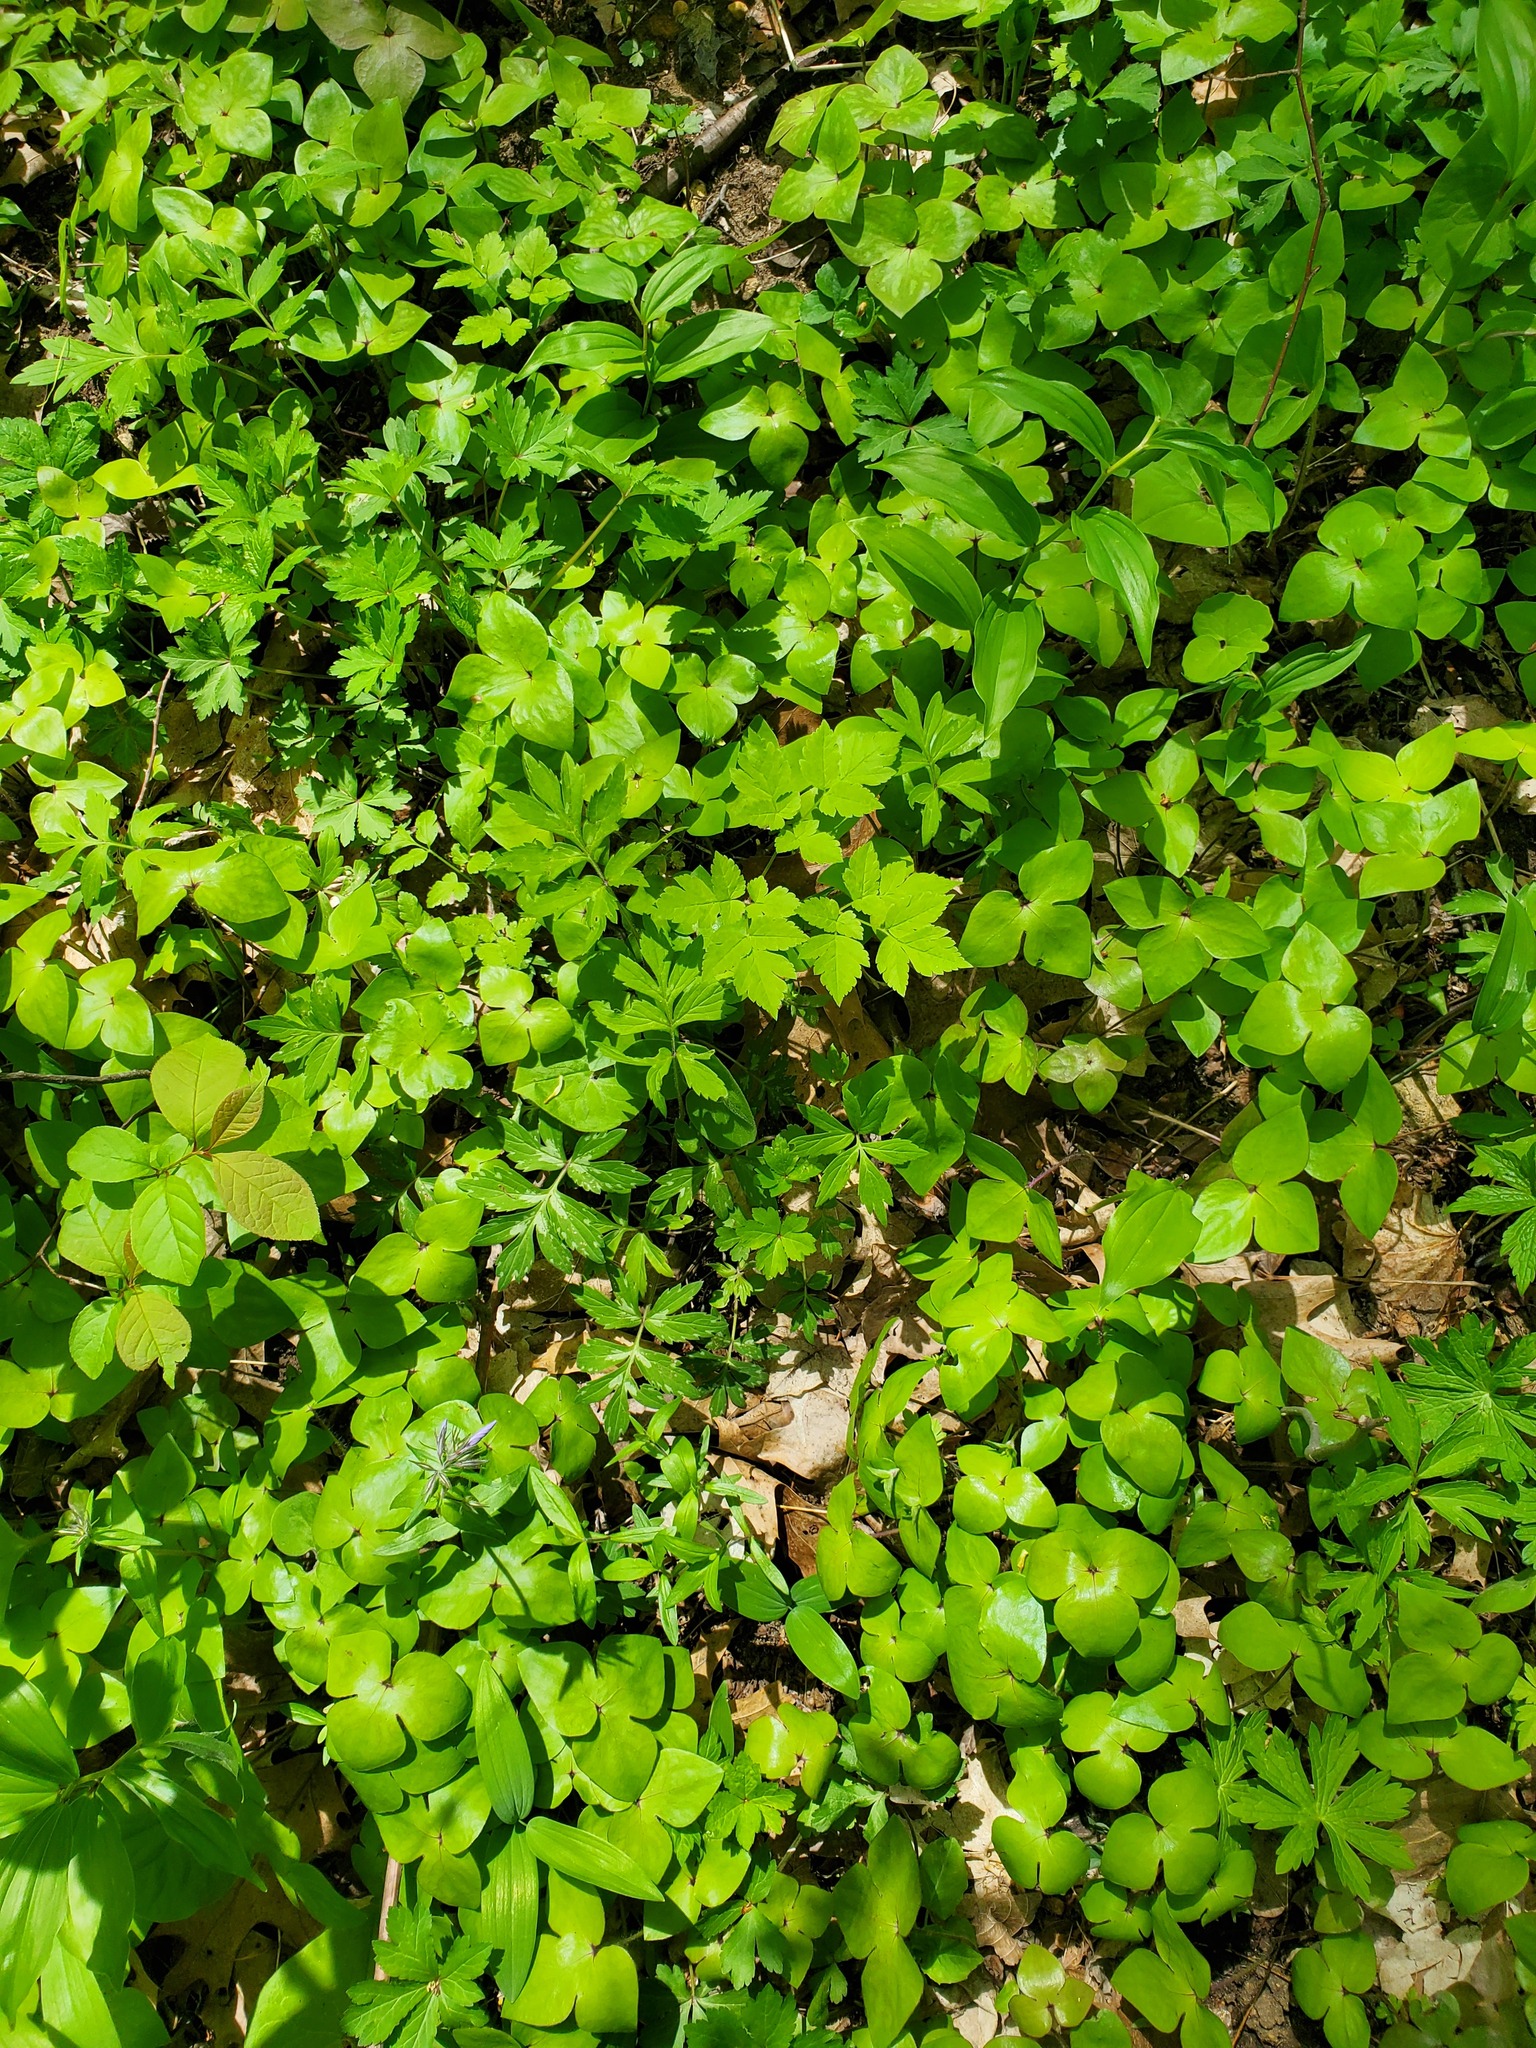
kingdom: Plantae
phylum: Tracheophyta
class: Magnoliopsida
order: Ranunculales
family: Ranunculaceae
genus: Hepatica
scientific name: Hepatica acutiloba
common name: Sharp-lobed hepatica
